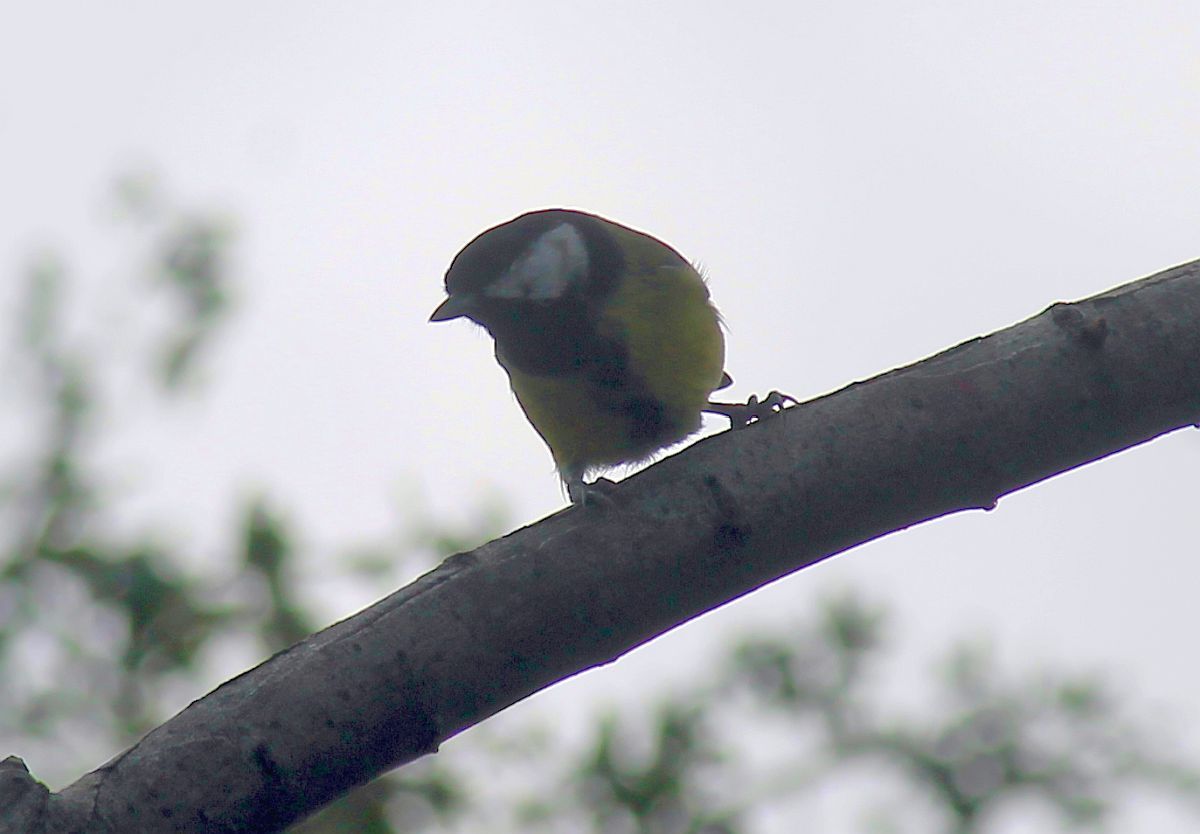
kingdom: Animalia
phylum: Chordata
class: Aves
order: Passeriformes
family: Paridae
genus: Parus
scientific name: Parus major
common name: Great tit
